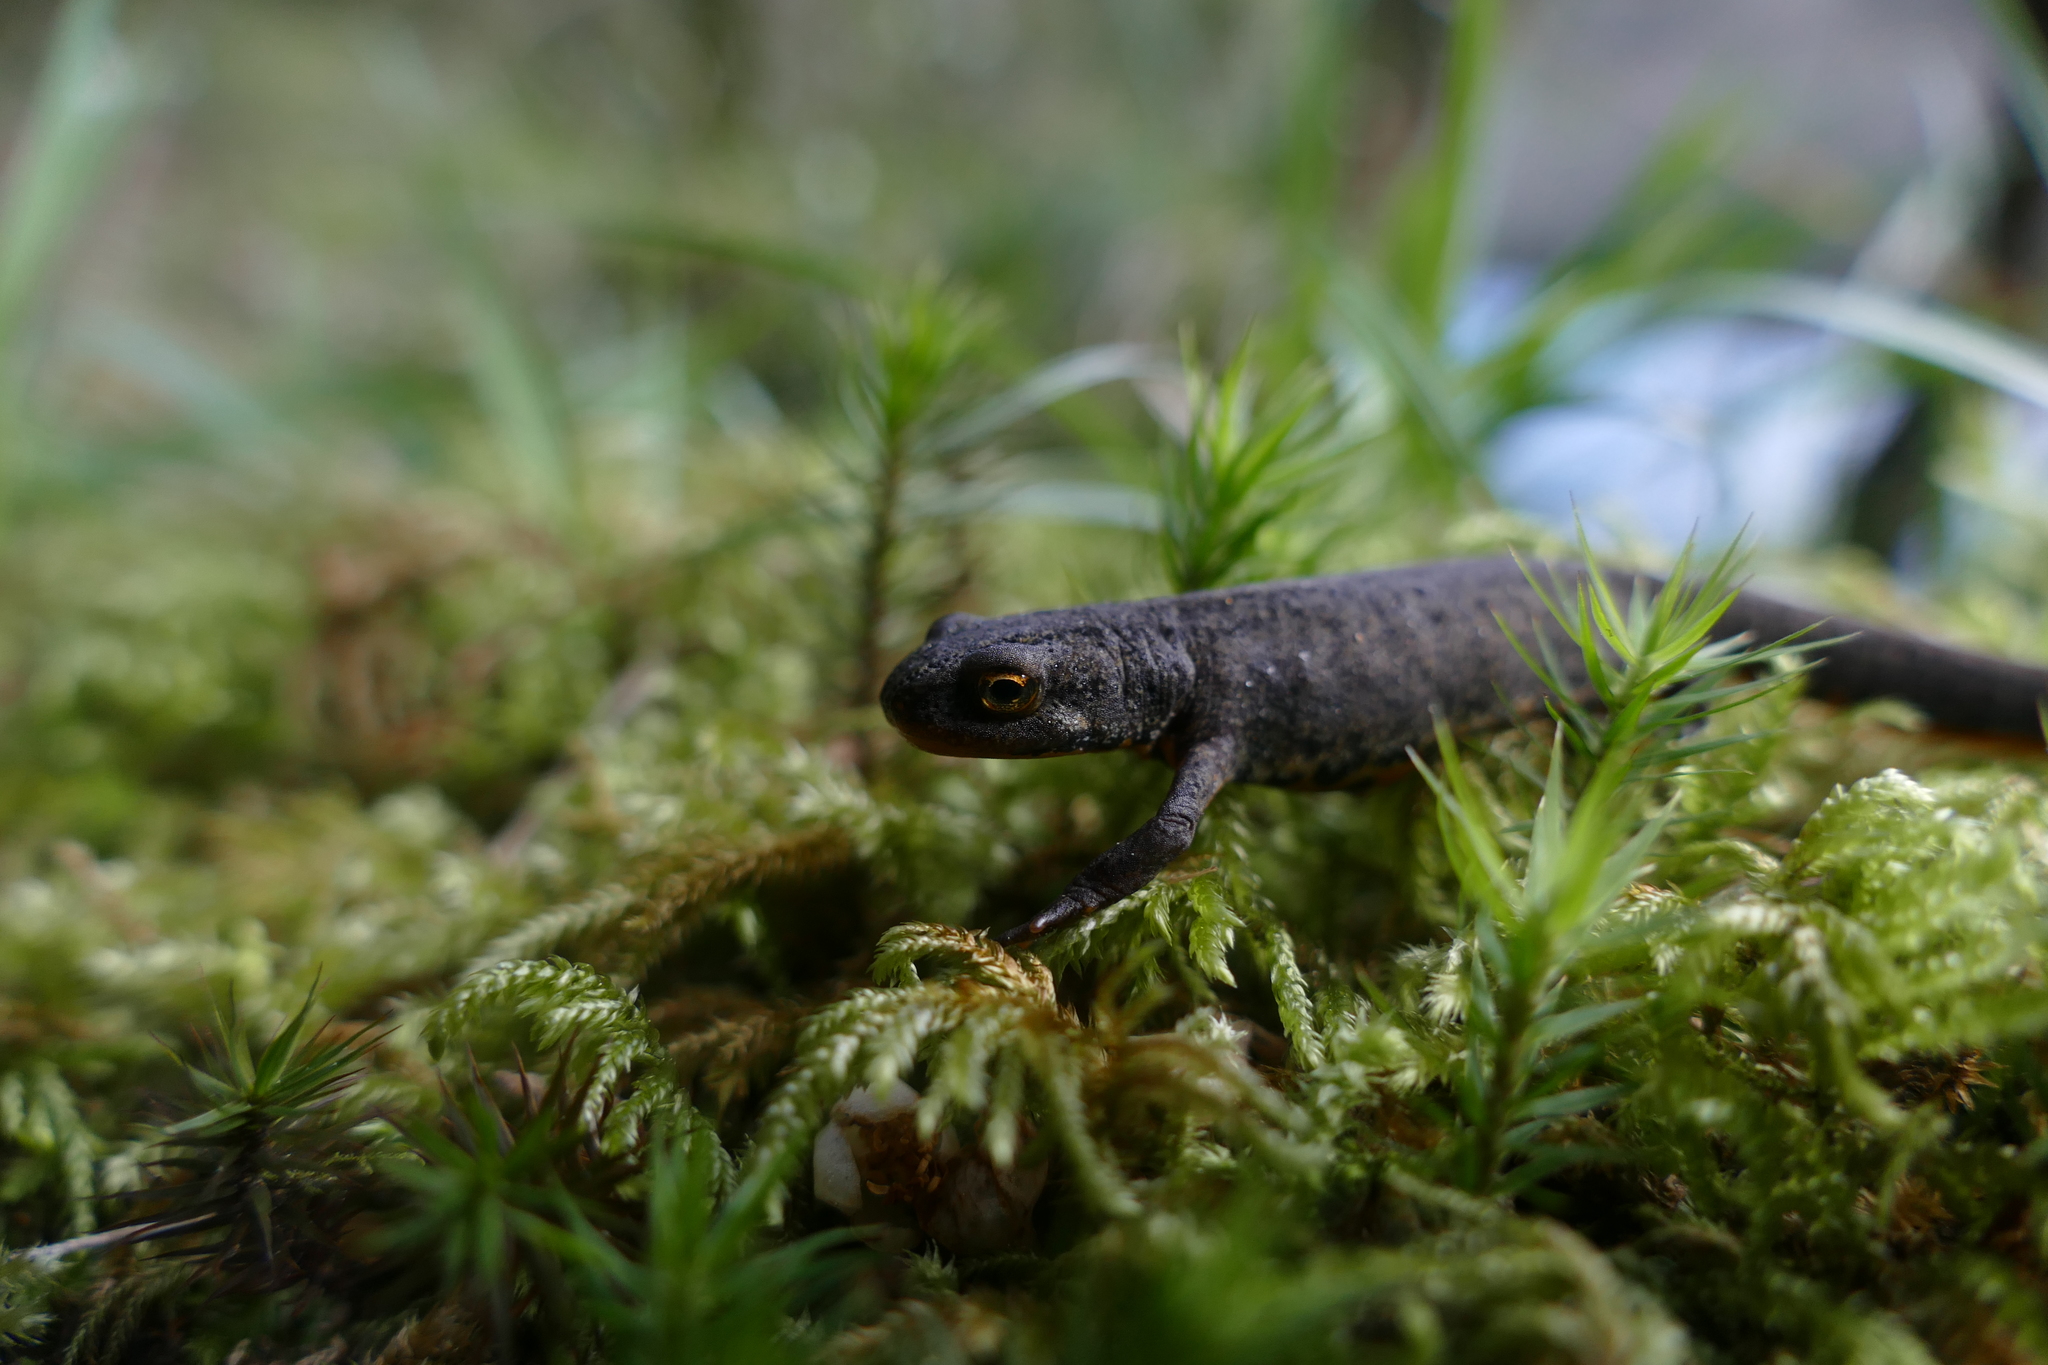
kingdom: Animalia
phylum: Chordata
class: Amphibia
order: Caudata
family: Salamandridae
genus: Lissotriton
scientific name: Lissotriton boscai
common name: Bosca's newt
